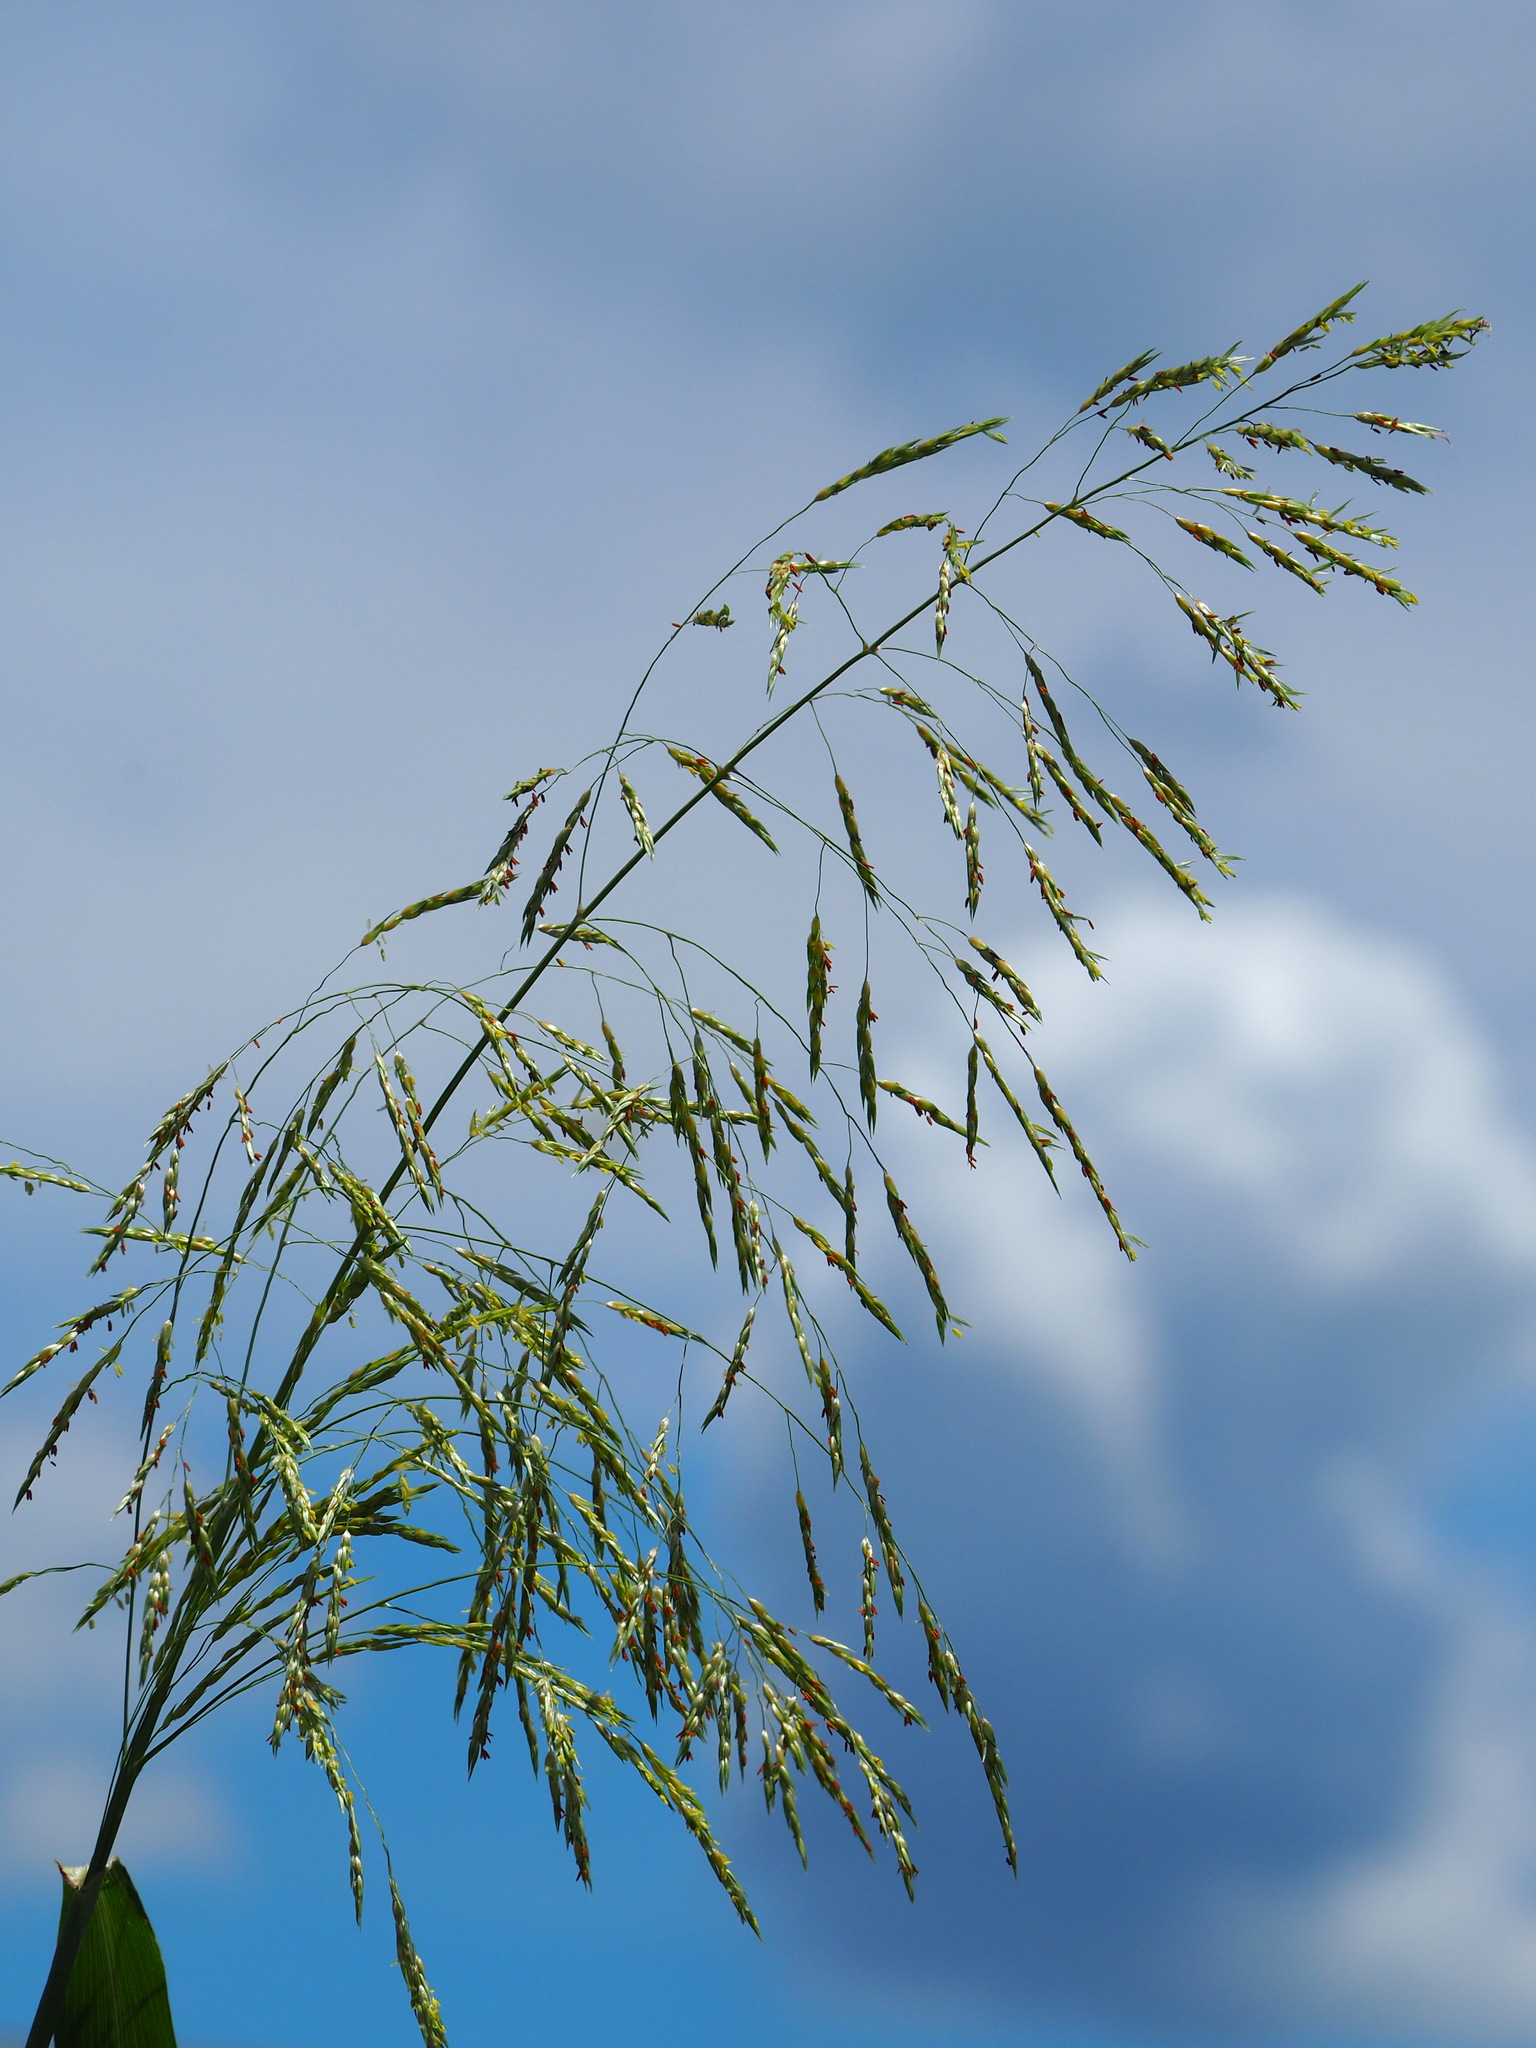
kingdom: Plantae
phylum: Tracheophyta
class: Liliopsida
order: Poales
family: Poaceae
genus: Sorghum
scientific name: Sorghum arundinaceum
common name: Sorghum
